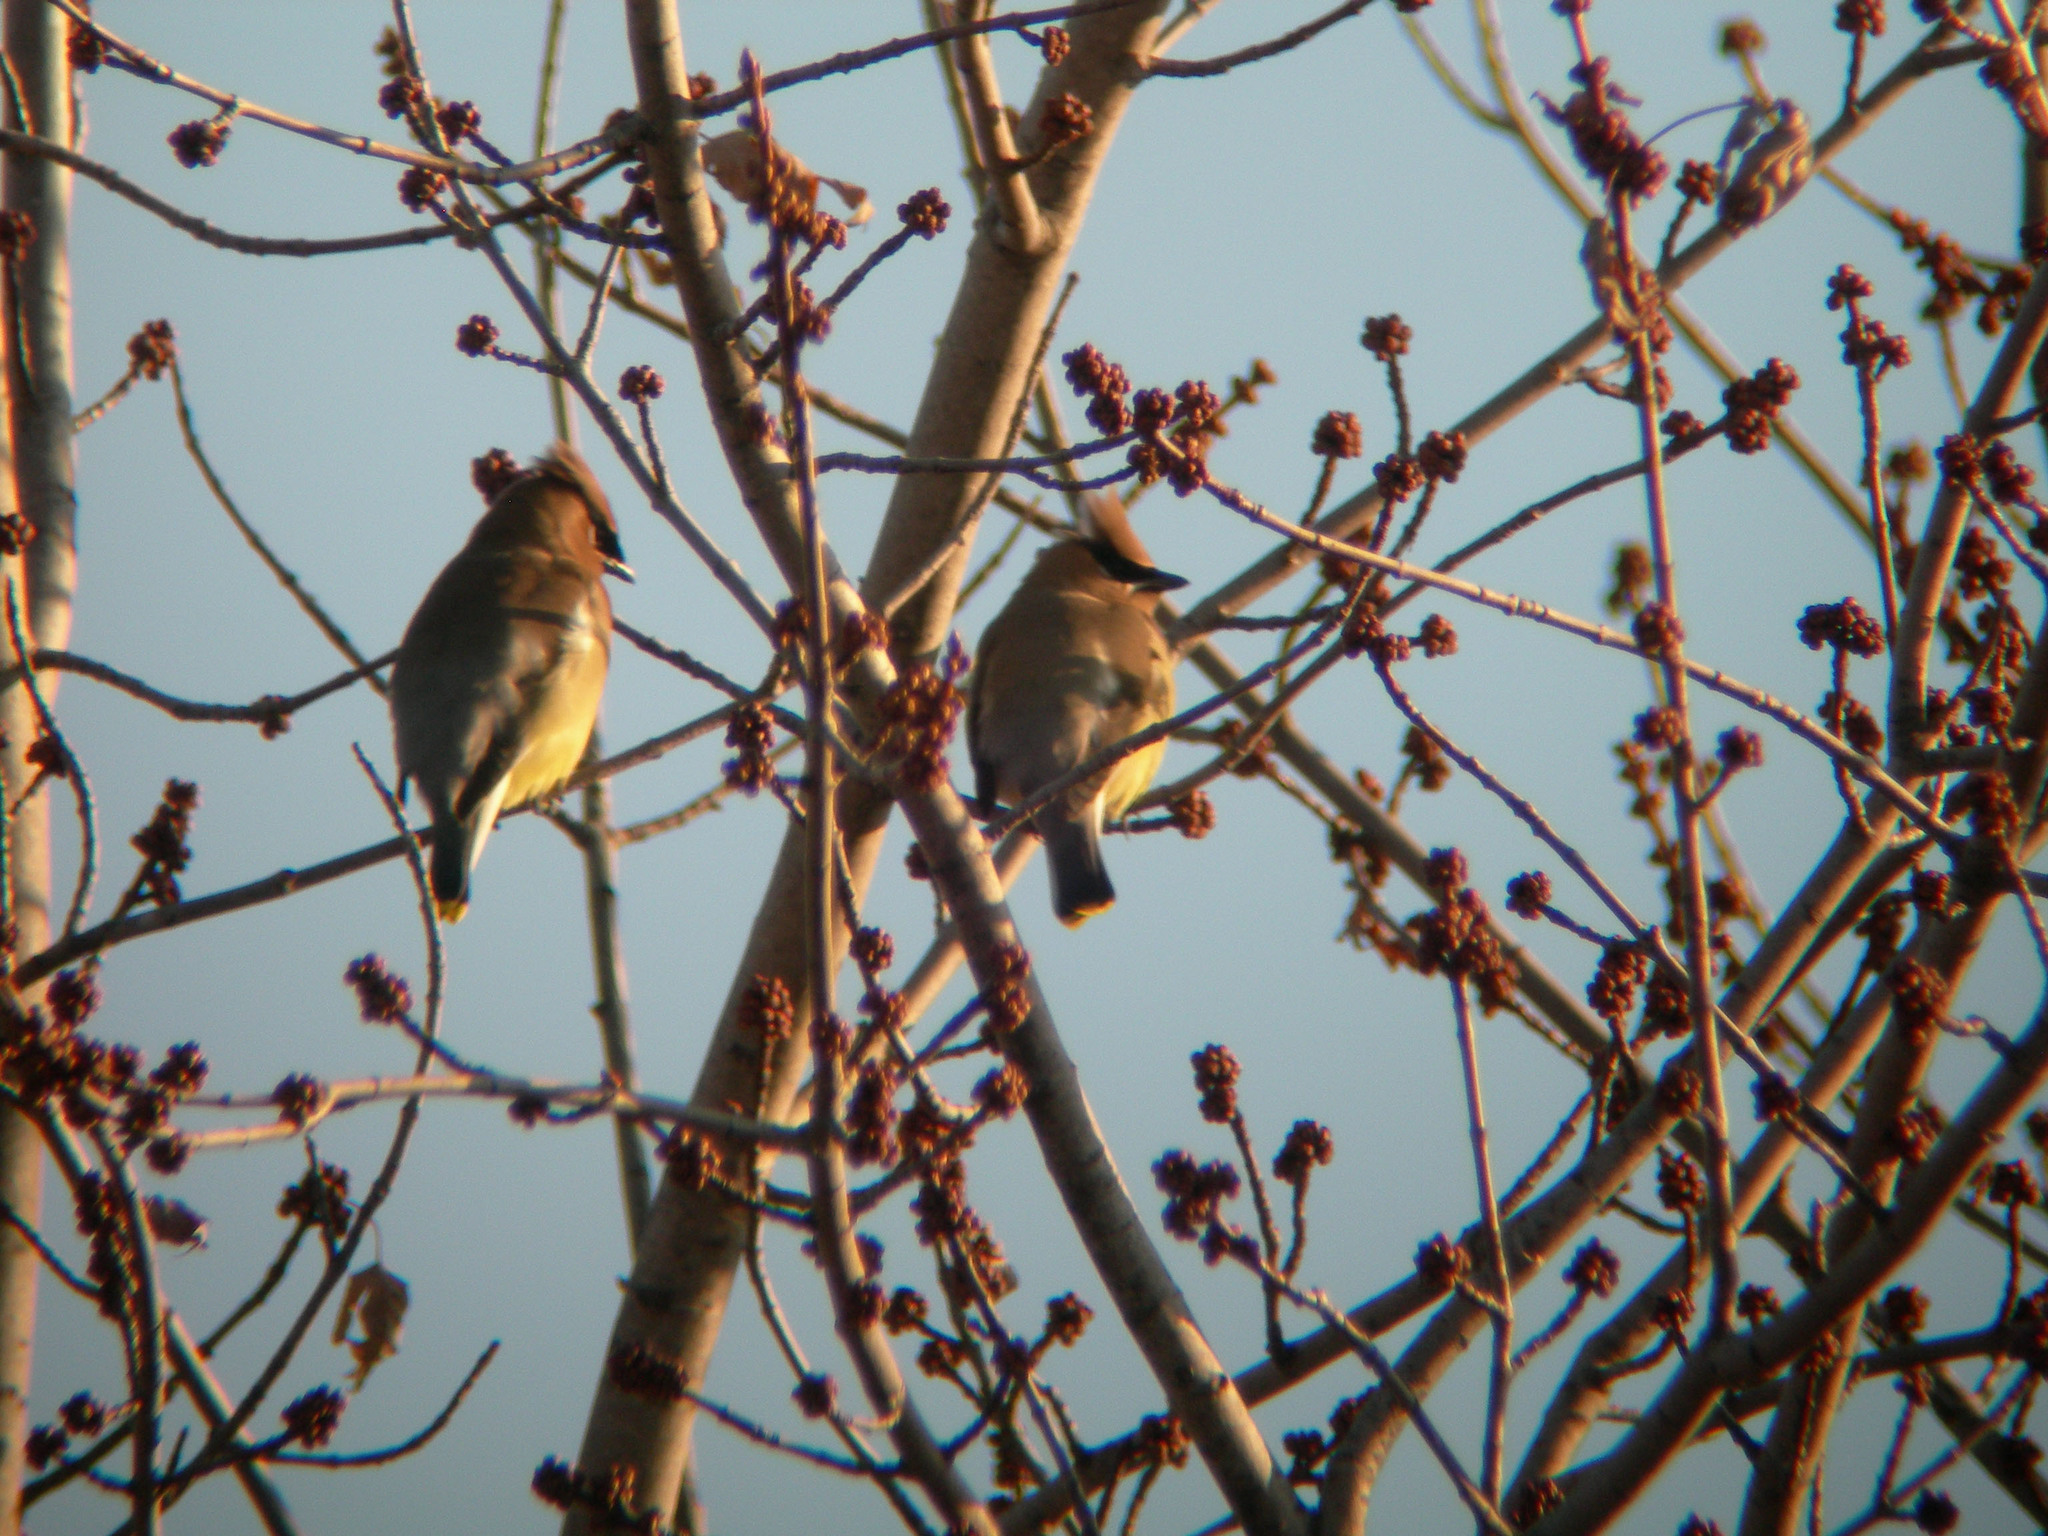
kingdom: Animalia
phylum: Chordata
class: Aves
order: Passeriformes
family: Bombycillidae
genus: Bombycilla
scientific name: Bombycilla cedrorum
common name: Cedar waxwing
